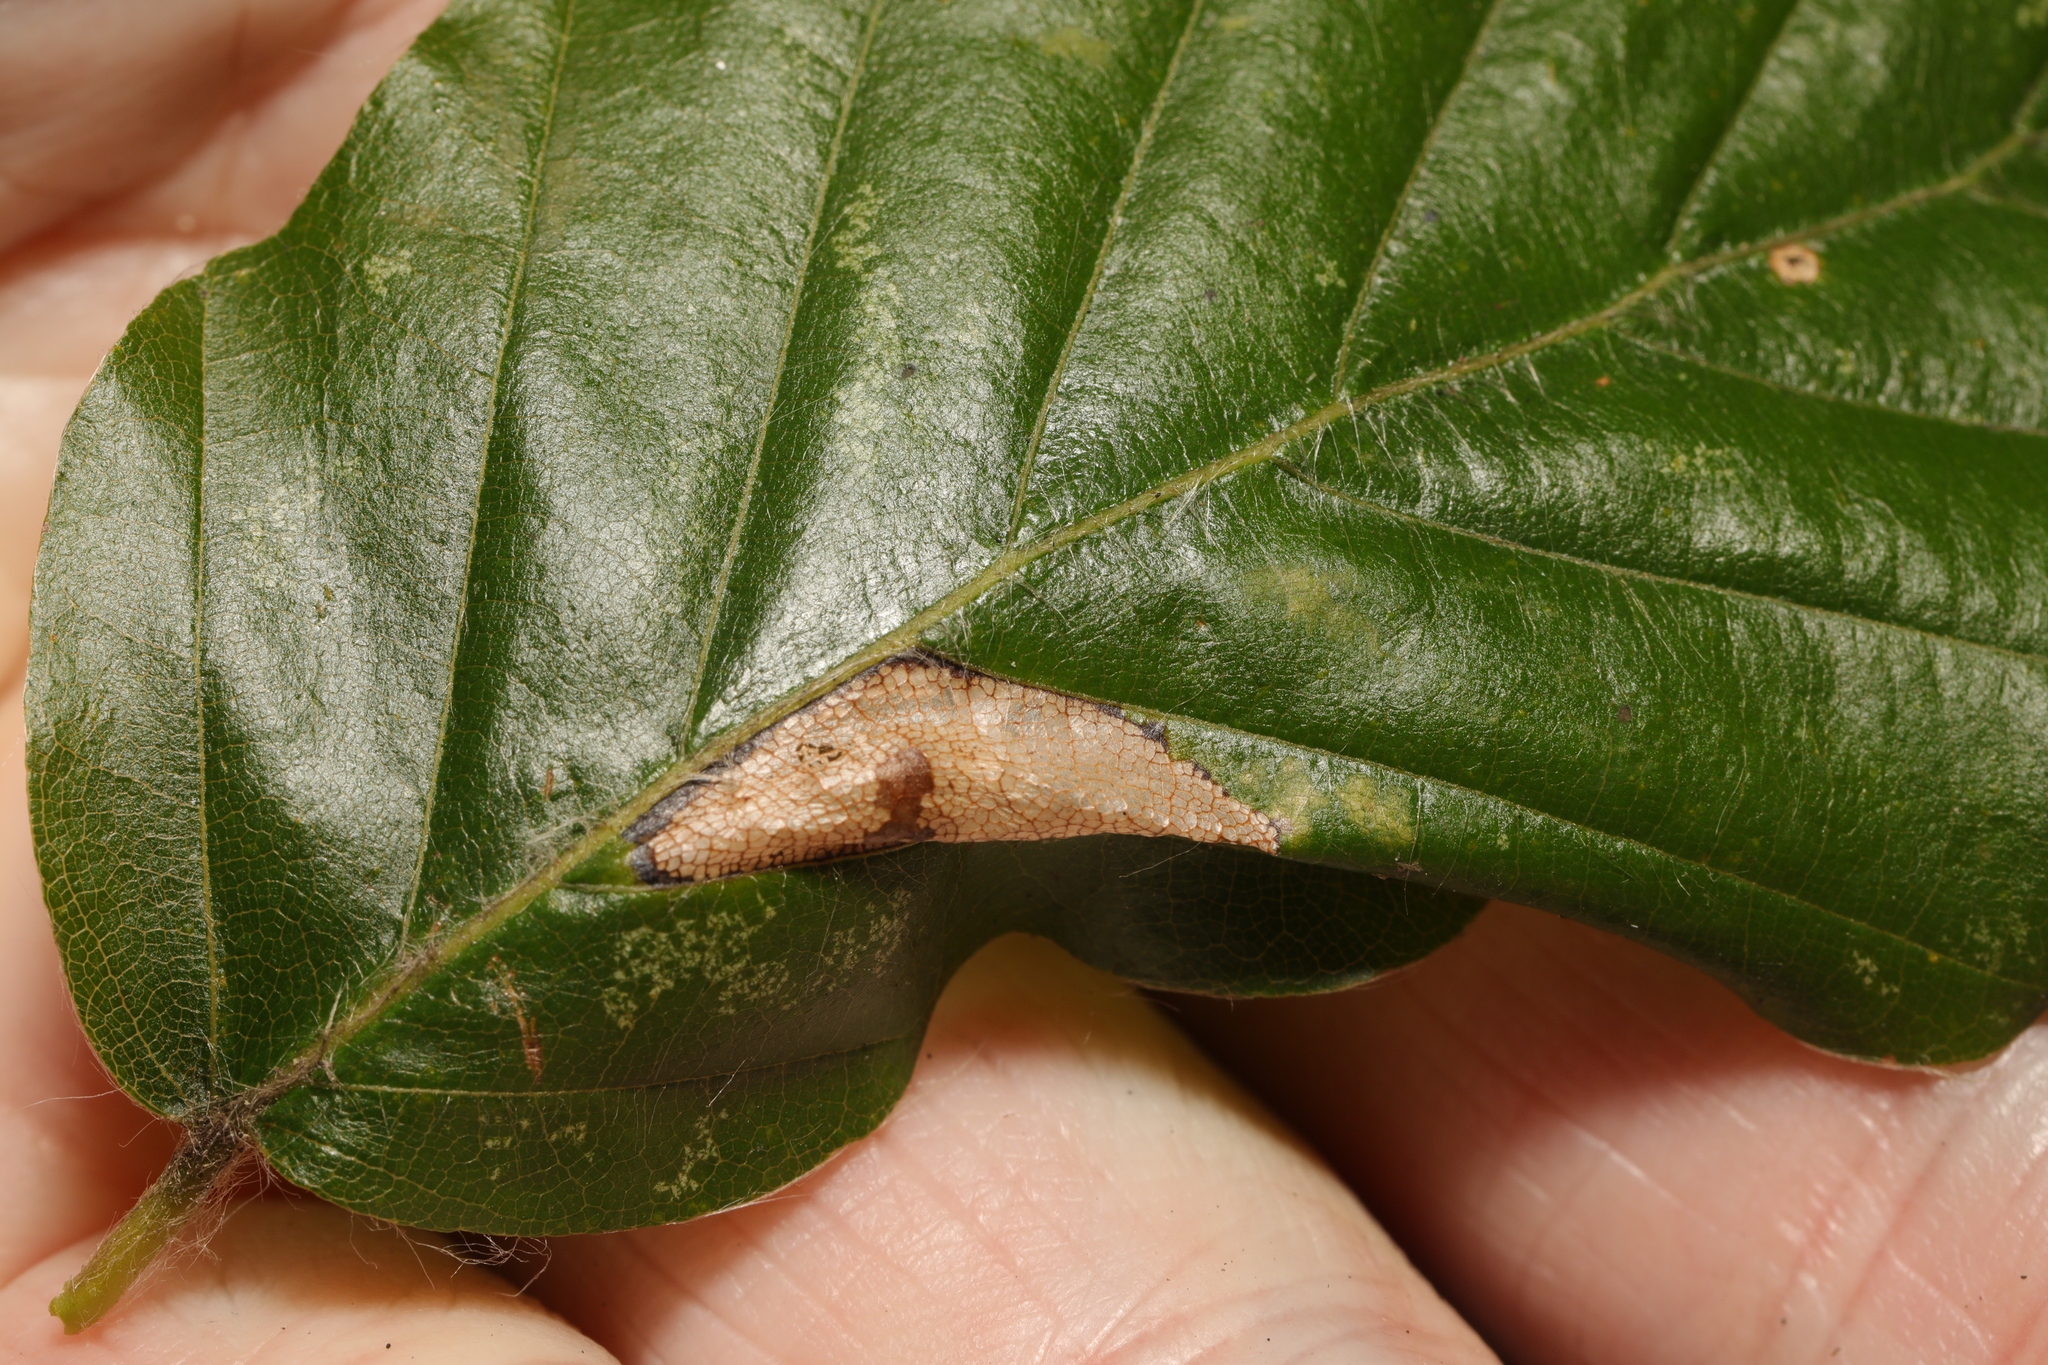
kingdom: Animalia
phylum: Arthropoda
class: Insecta
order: Lepidoptera
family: Gracillariidae
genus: Phyllonorycter
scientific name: Phyllonorycter maestingella
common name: Beech midget
